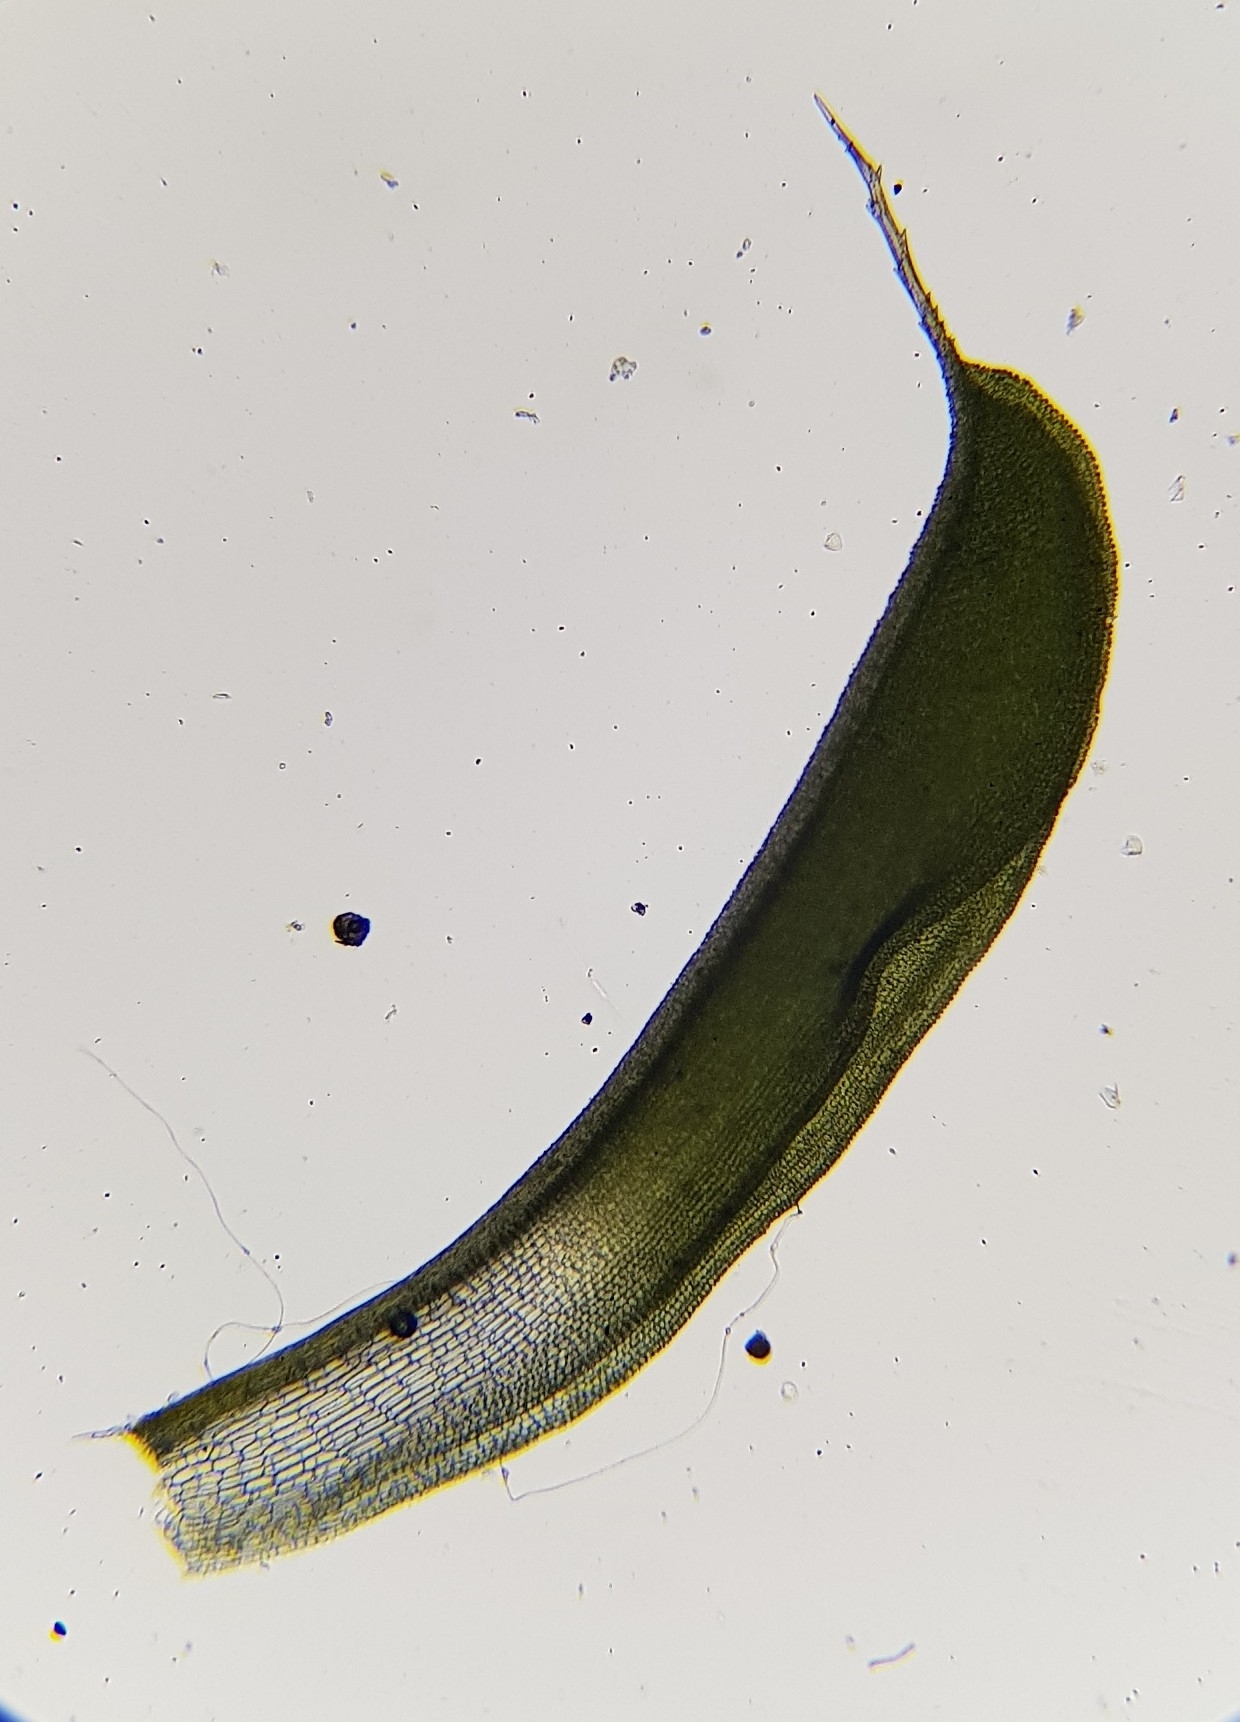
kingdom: Plantae
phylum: Bryophyta
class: Bryopsida
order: Pottiales
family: Pottiaceae
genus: Syntrichia
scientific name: Syntrichia ruralis
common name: Sidewalk screw moss
